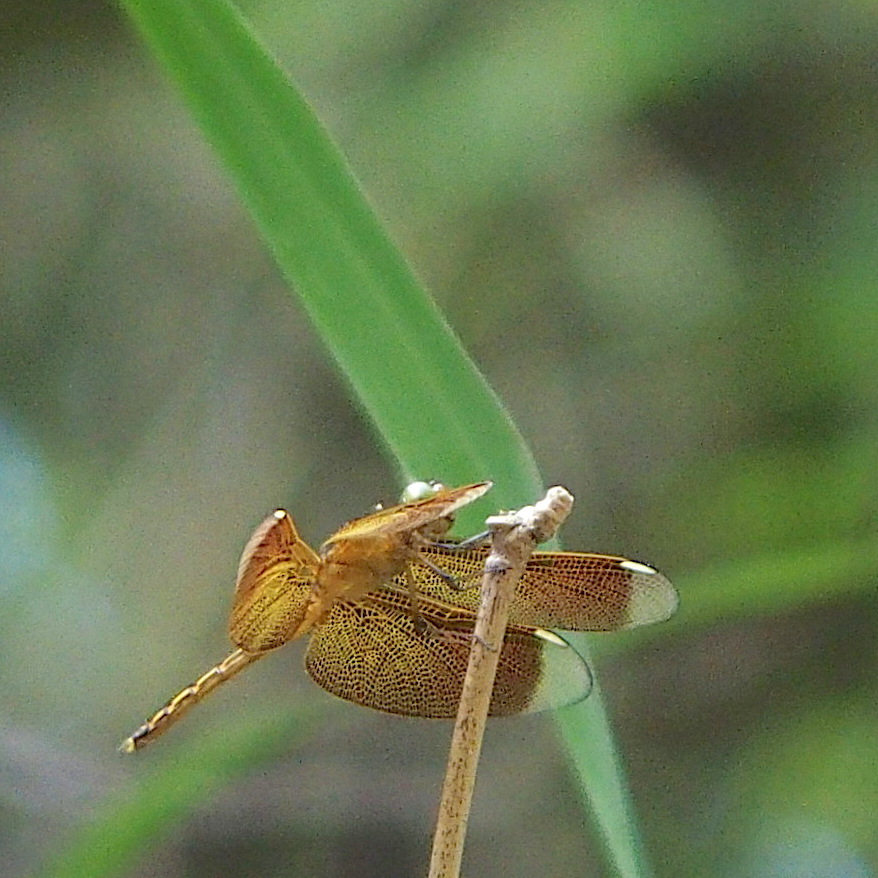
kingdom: Animalia
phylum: Arthropoda
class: Insecta
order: Odonata
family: Libellulidae
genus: Neurothemis
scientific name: Neurothemis taiwanensis
